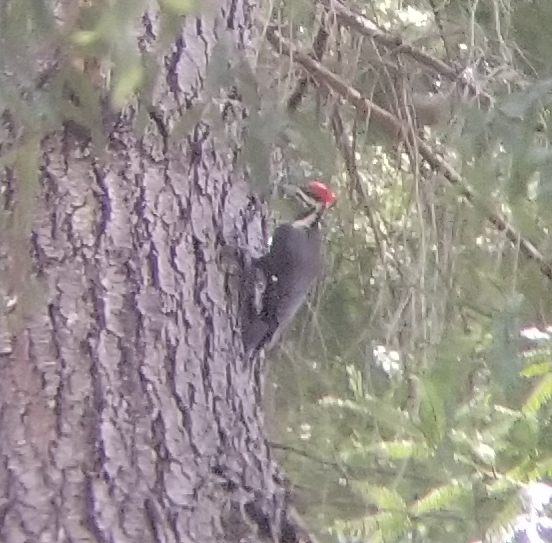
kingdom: Animalia
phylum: Chordata
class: Aves
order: Piciformes
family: Picidae
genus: Dryocopus
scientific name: Dryocopus pileatus
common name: Pileated woodpecker
